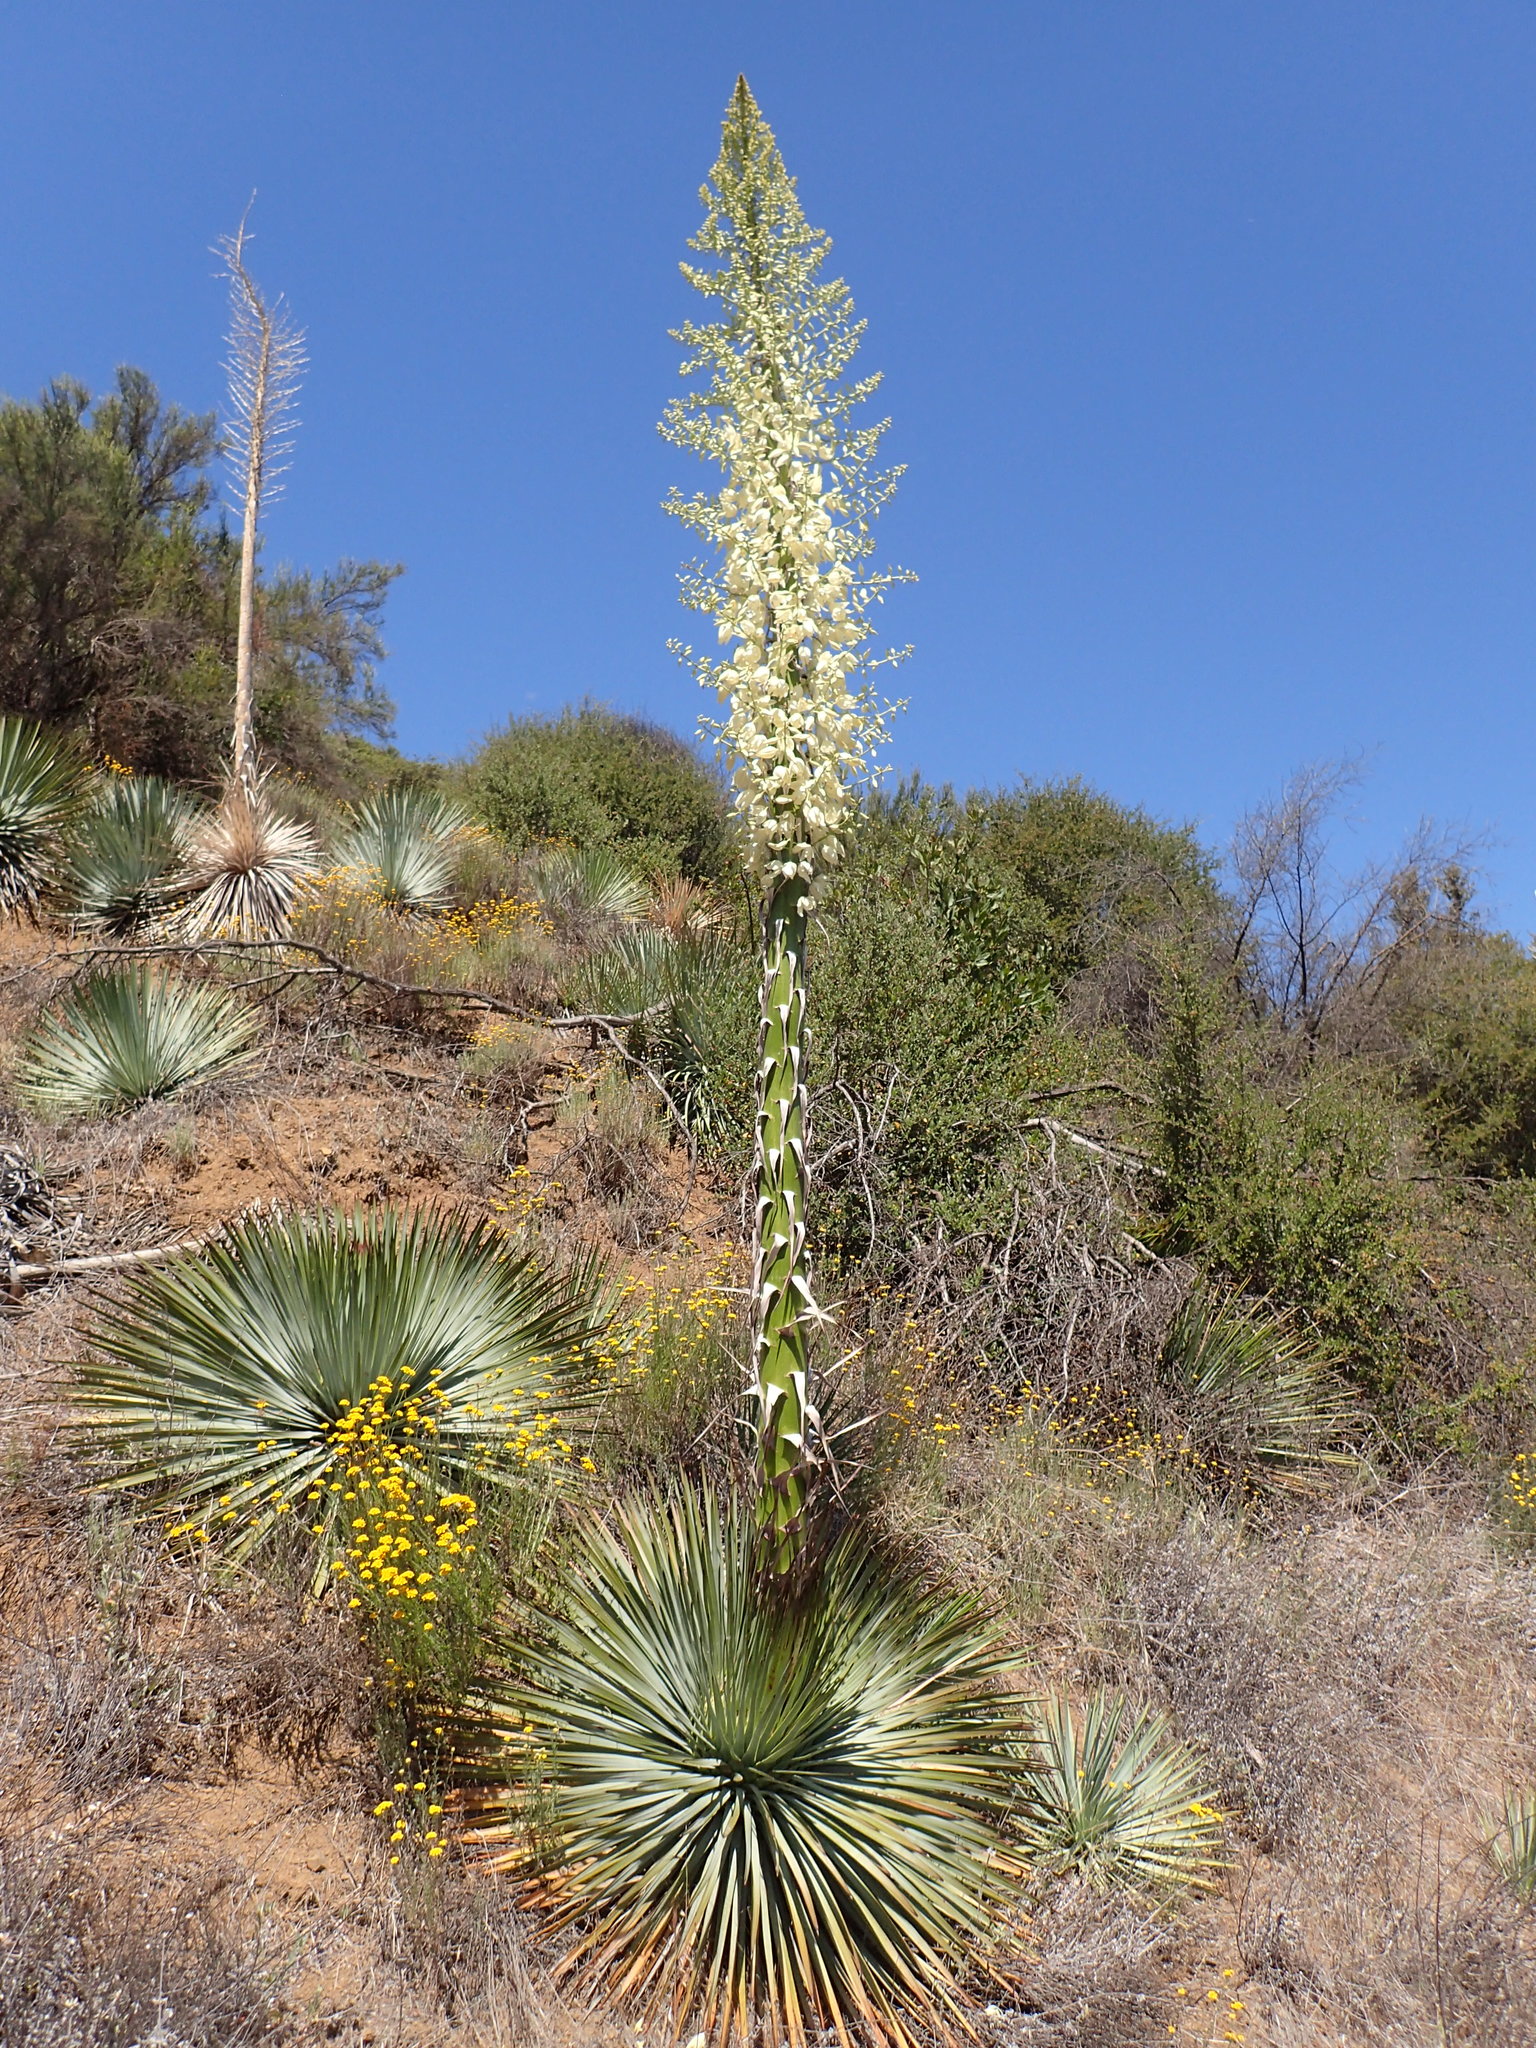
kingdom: Plantae
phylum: Tracheophyta
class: Liliopsida
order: Asparagales
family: Asparagaceae
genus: Hesperoyucca
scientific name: Hesperoyucca whipplei
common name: Our lord's-candle
